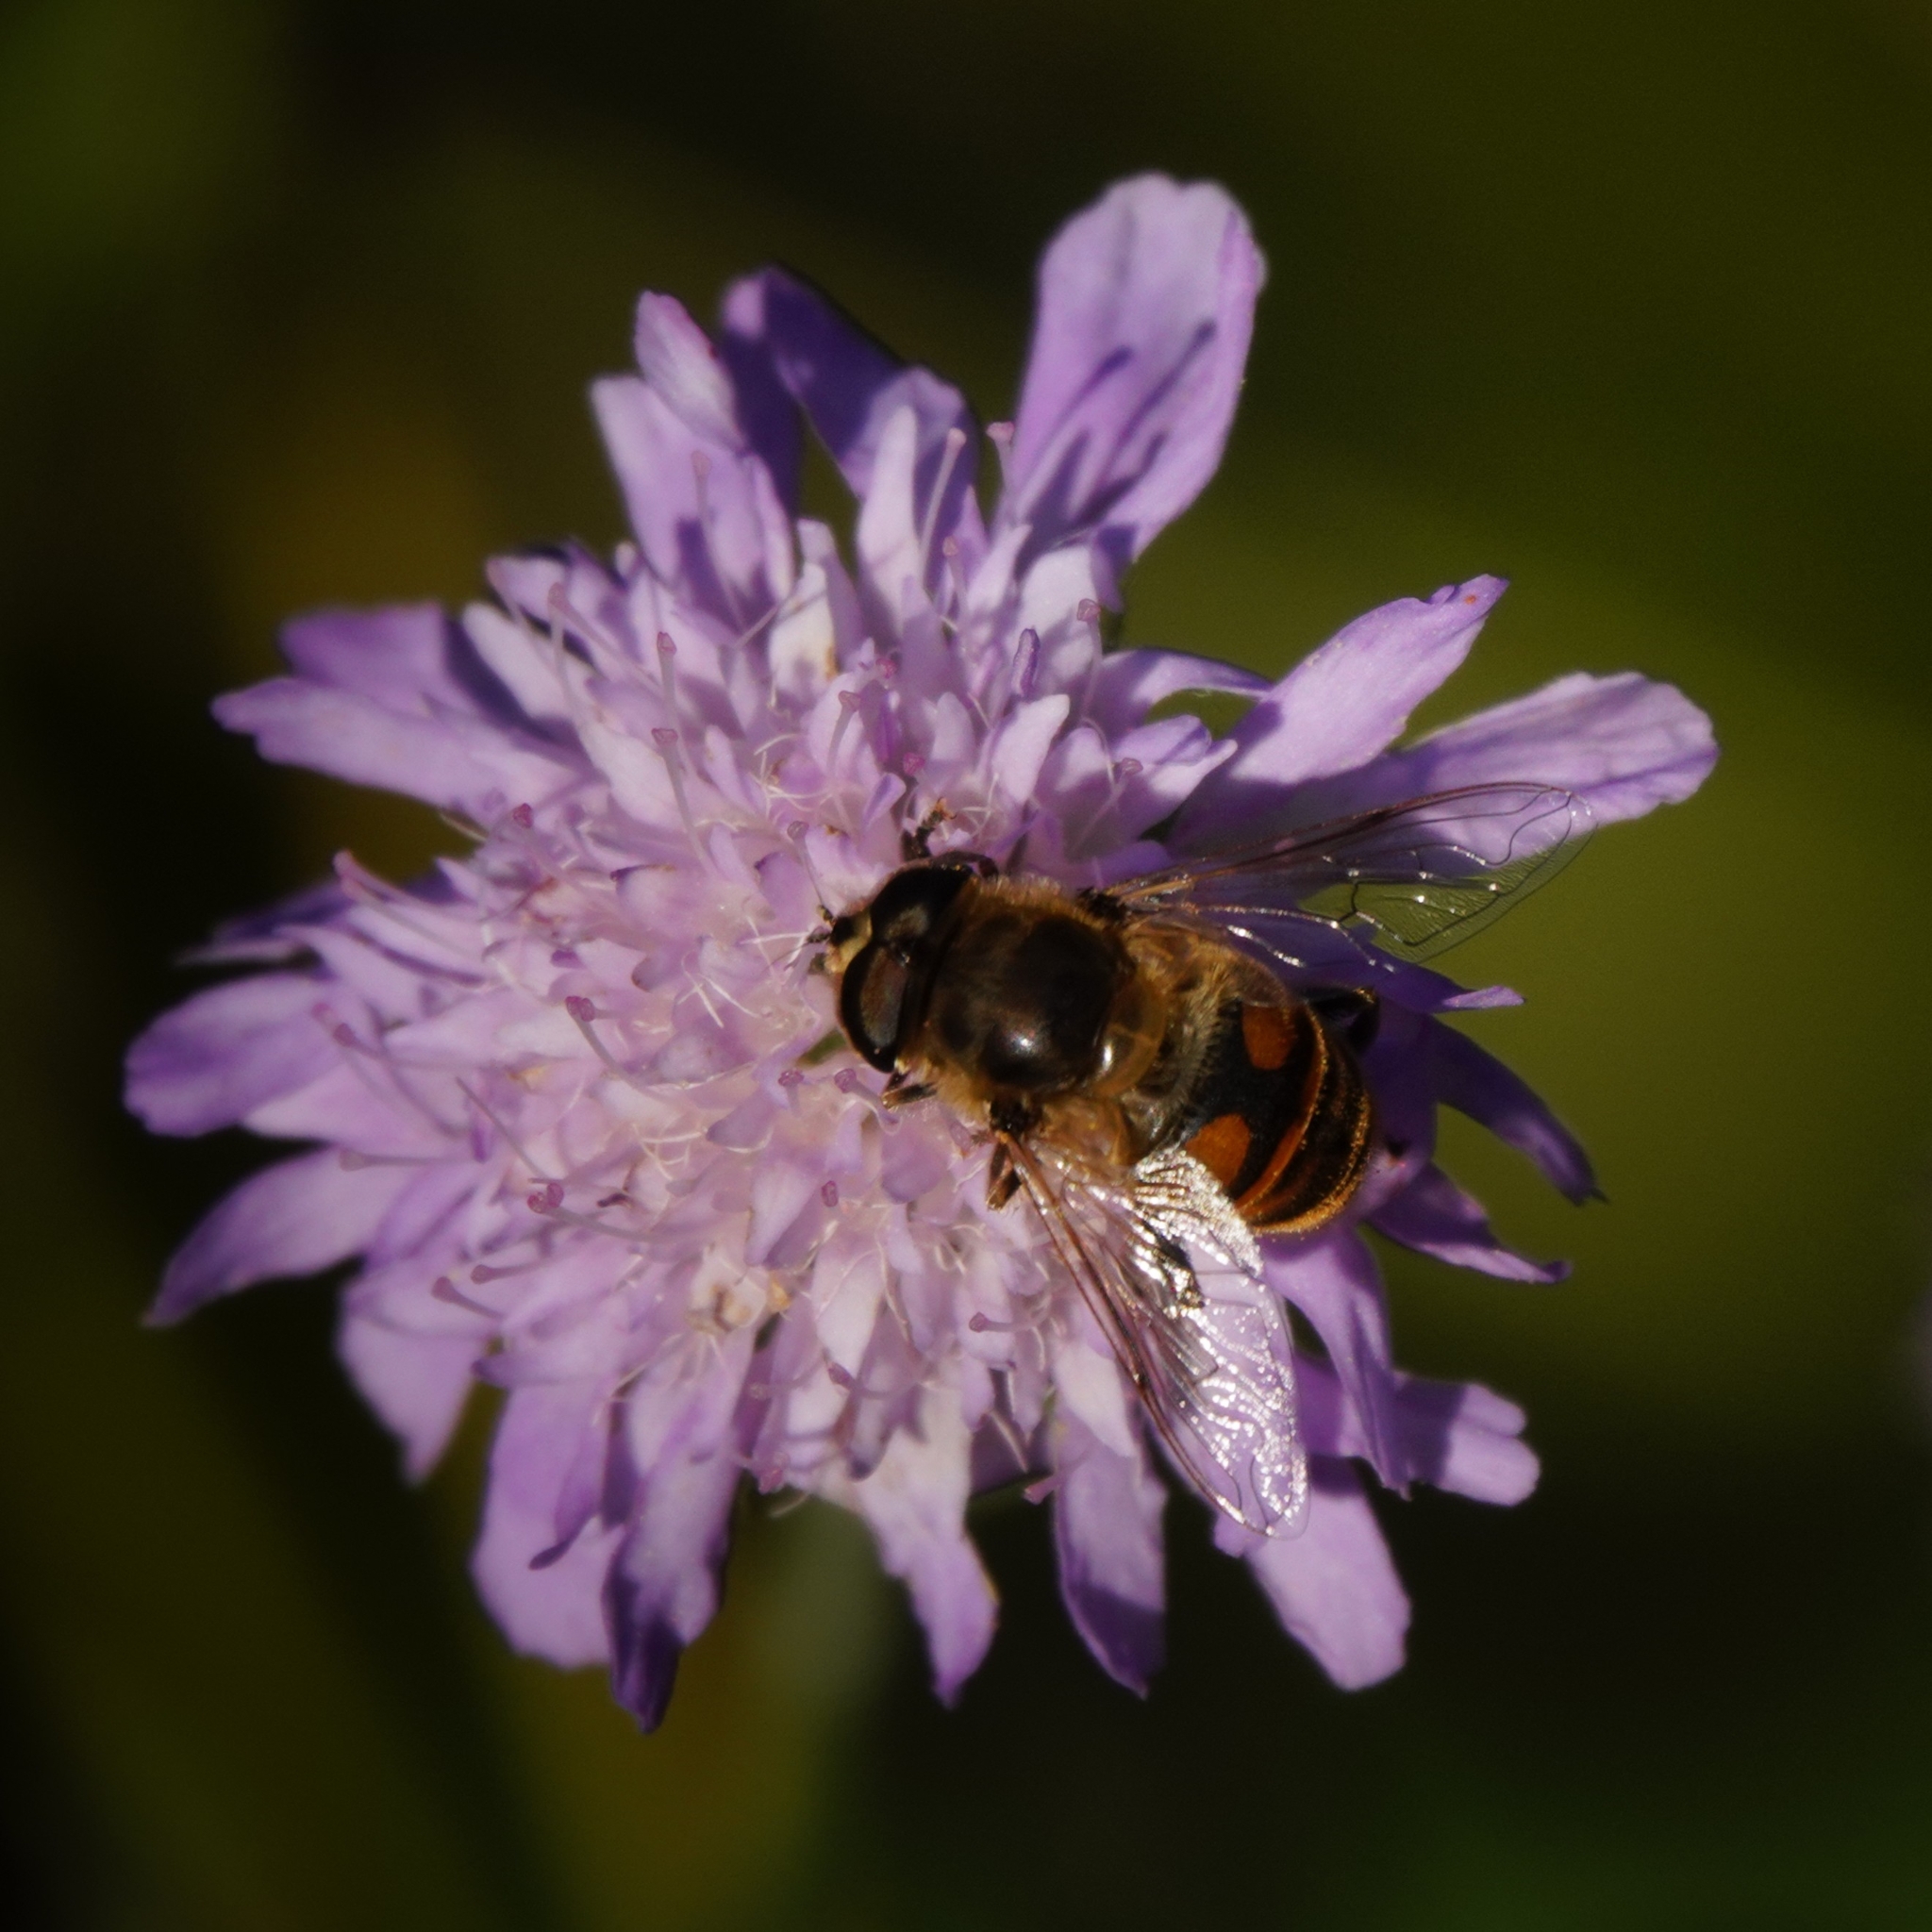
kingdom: Animalia
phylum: Arthropoda
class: Insecta
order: Diptera
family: Syrphidae
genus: Eristalis
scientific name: Eristalis tenax
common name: Drone fly
